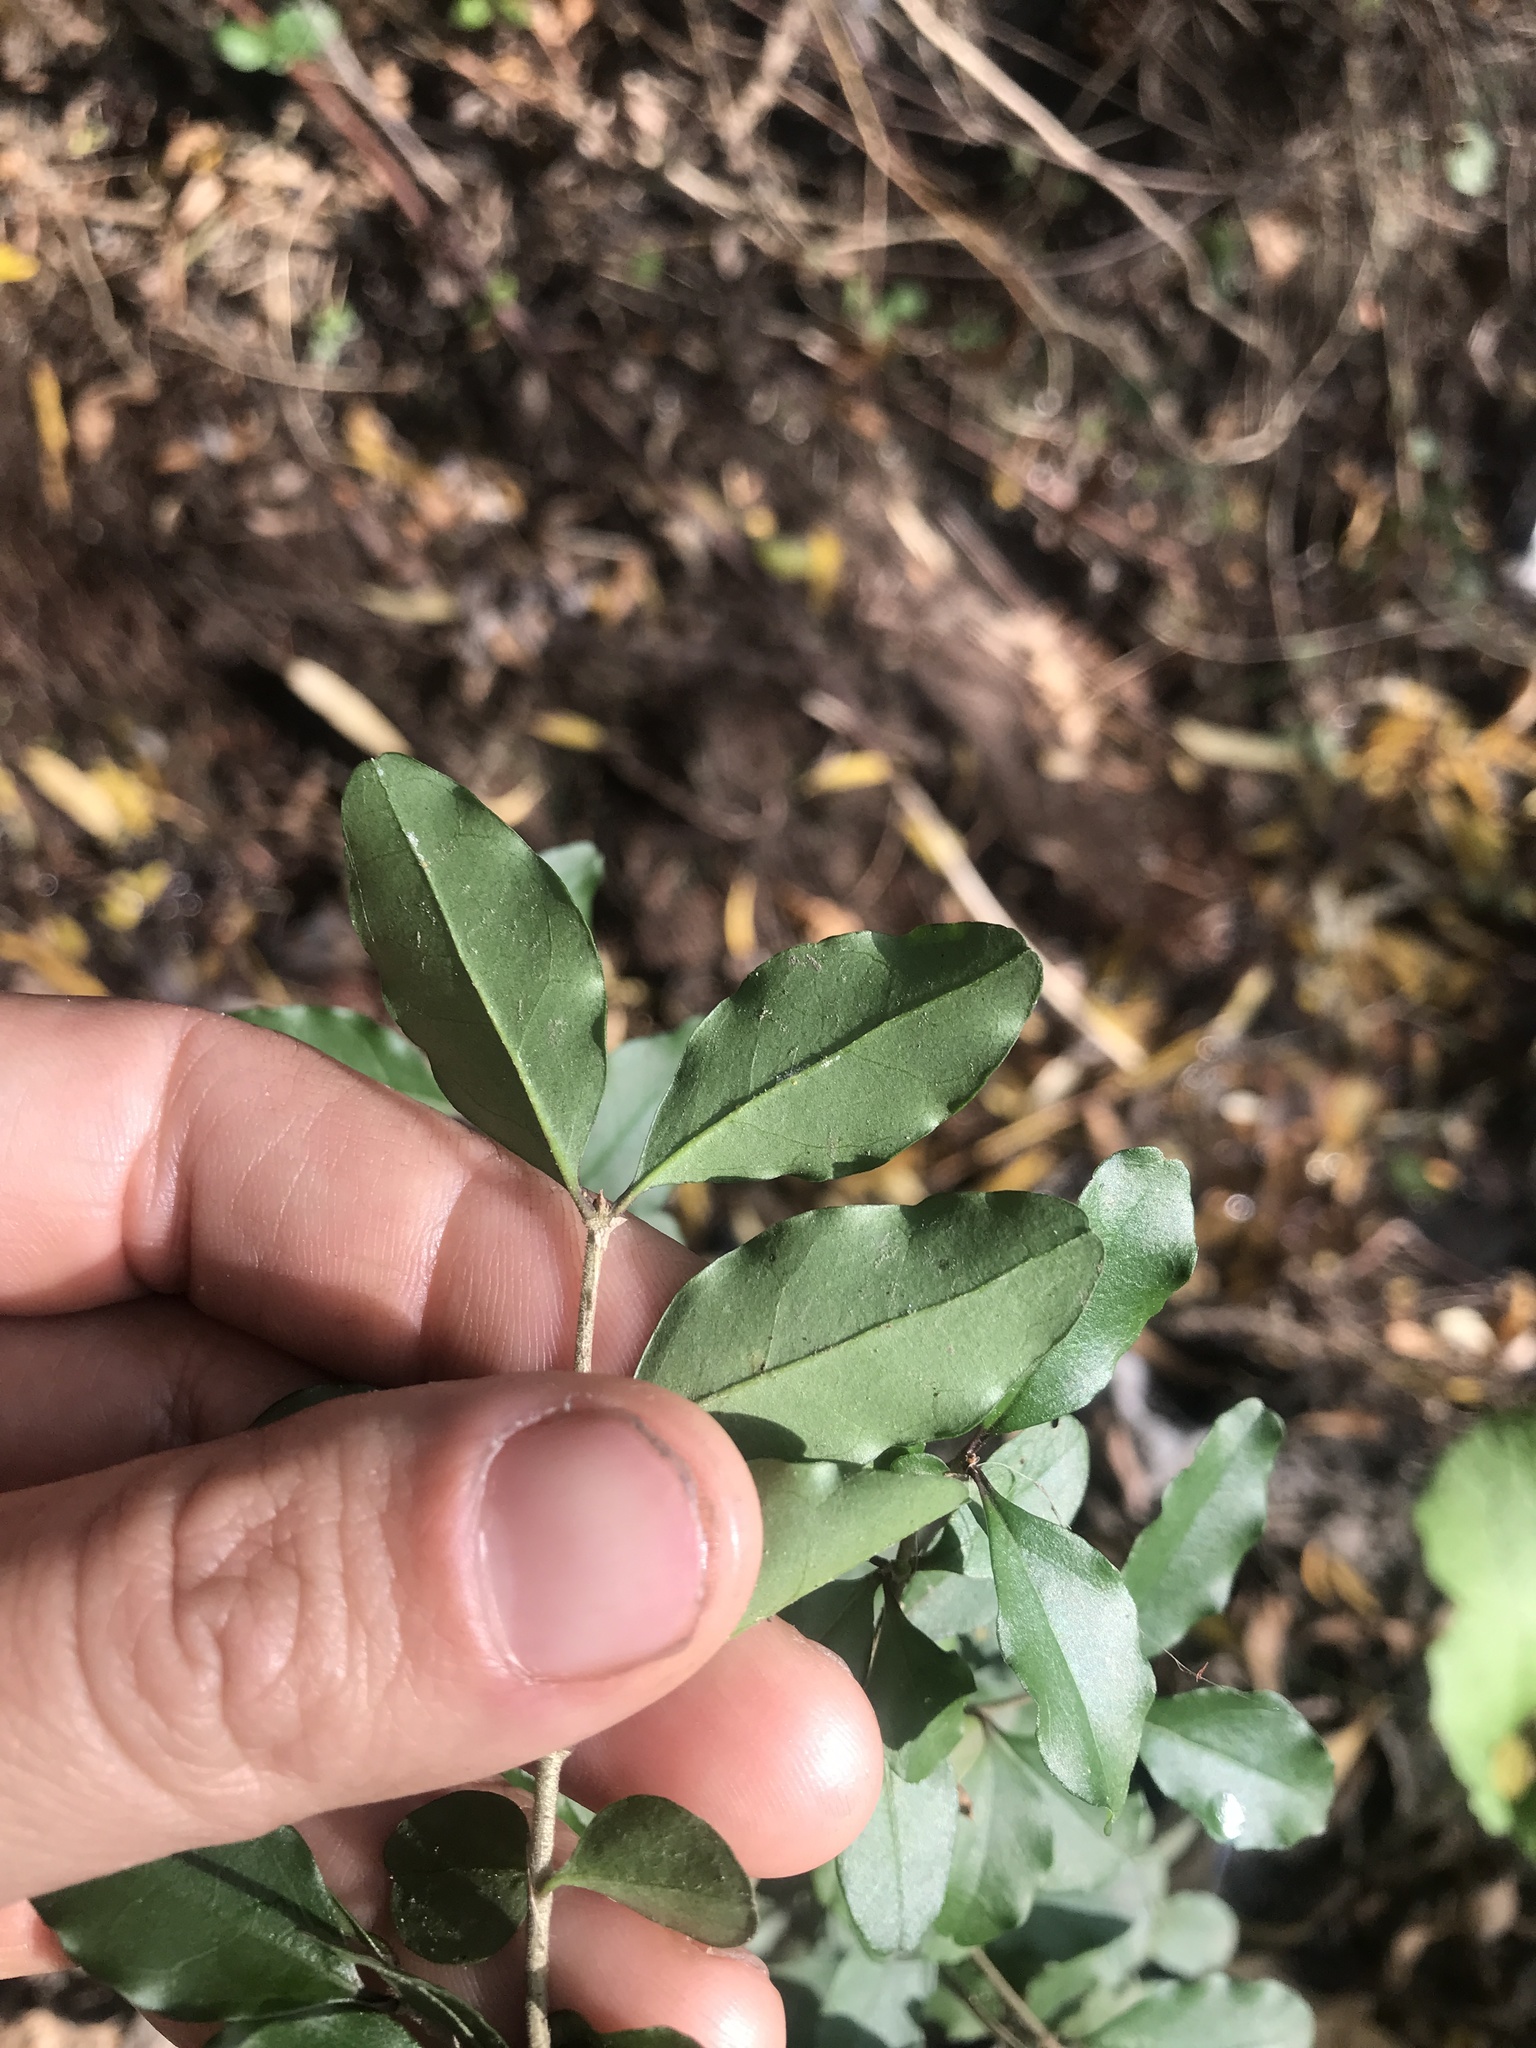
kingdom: Plantae
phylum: Tracheophyta
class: Magnoliopsida
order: Lamiales
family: Oleaceae
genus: Ligustrum
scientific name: Ligustrum sinense
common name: Chinese privet
